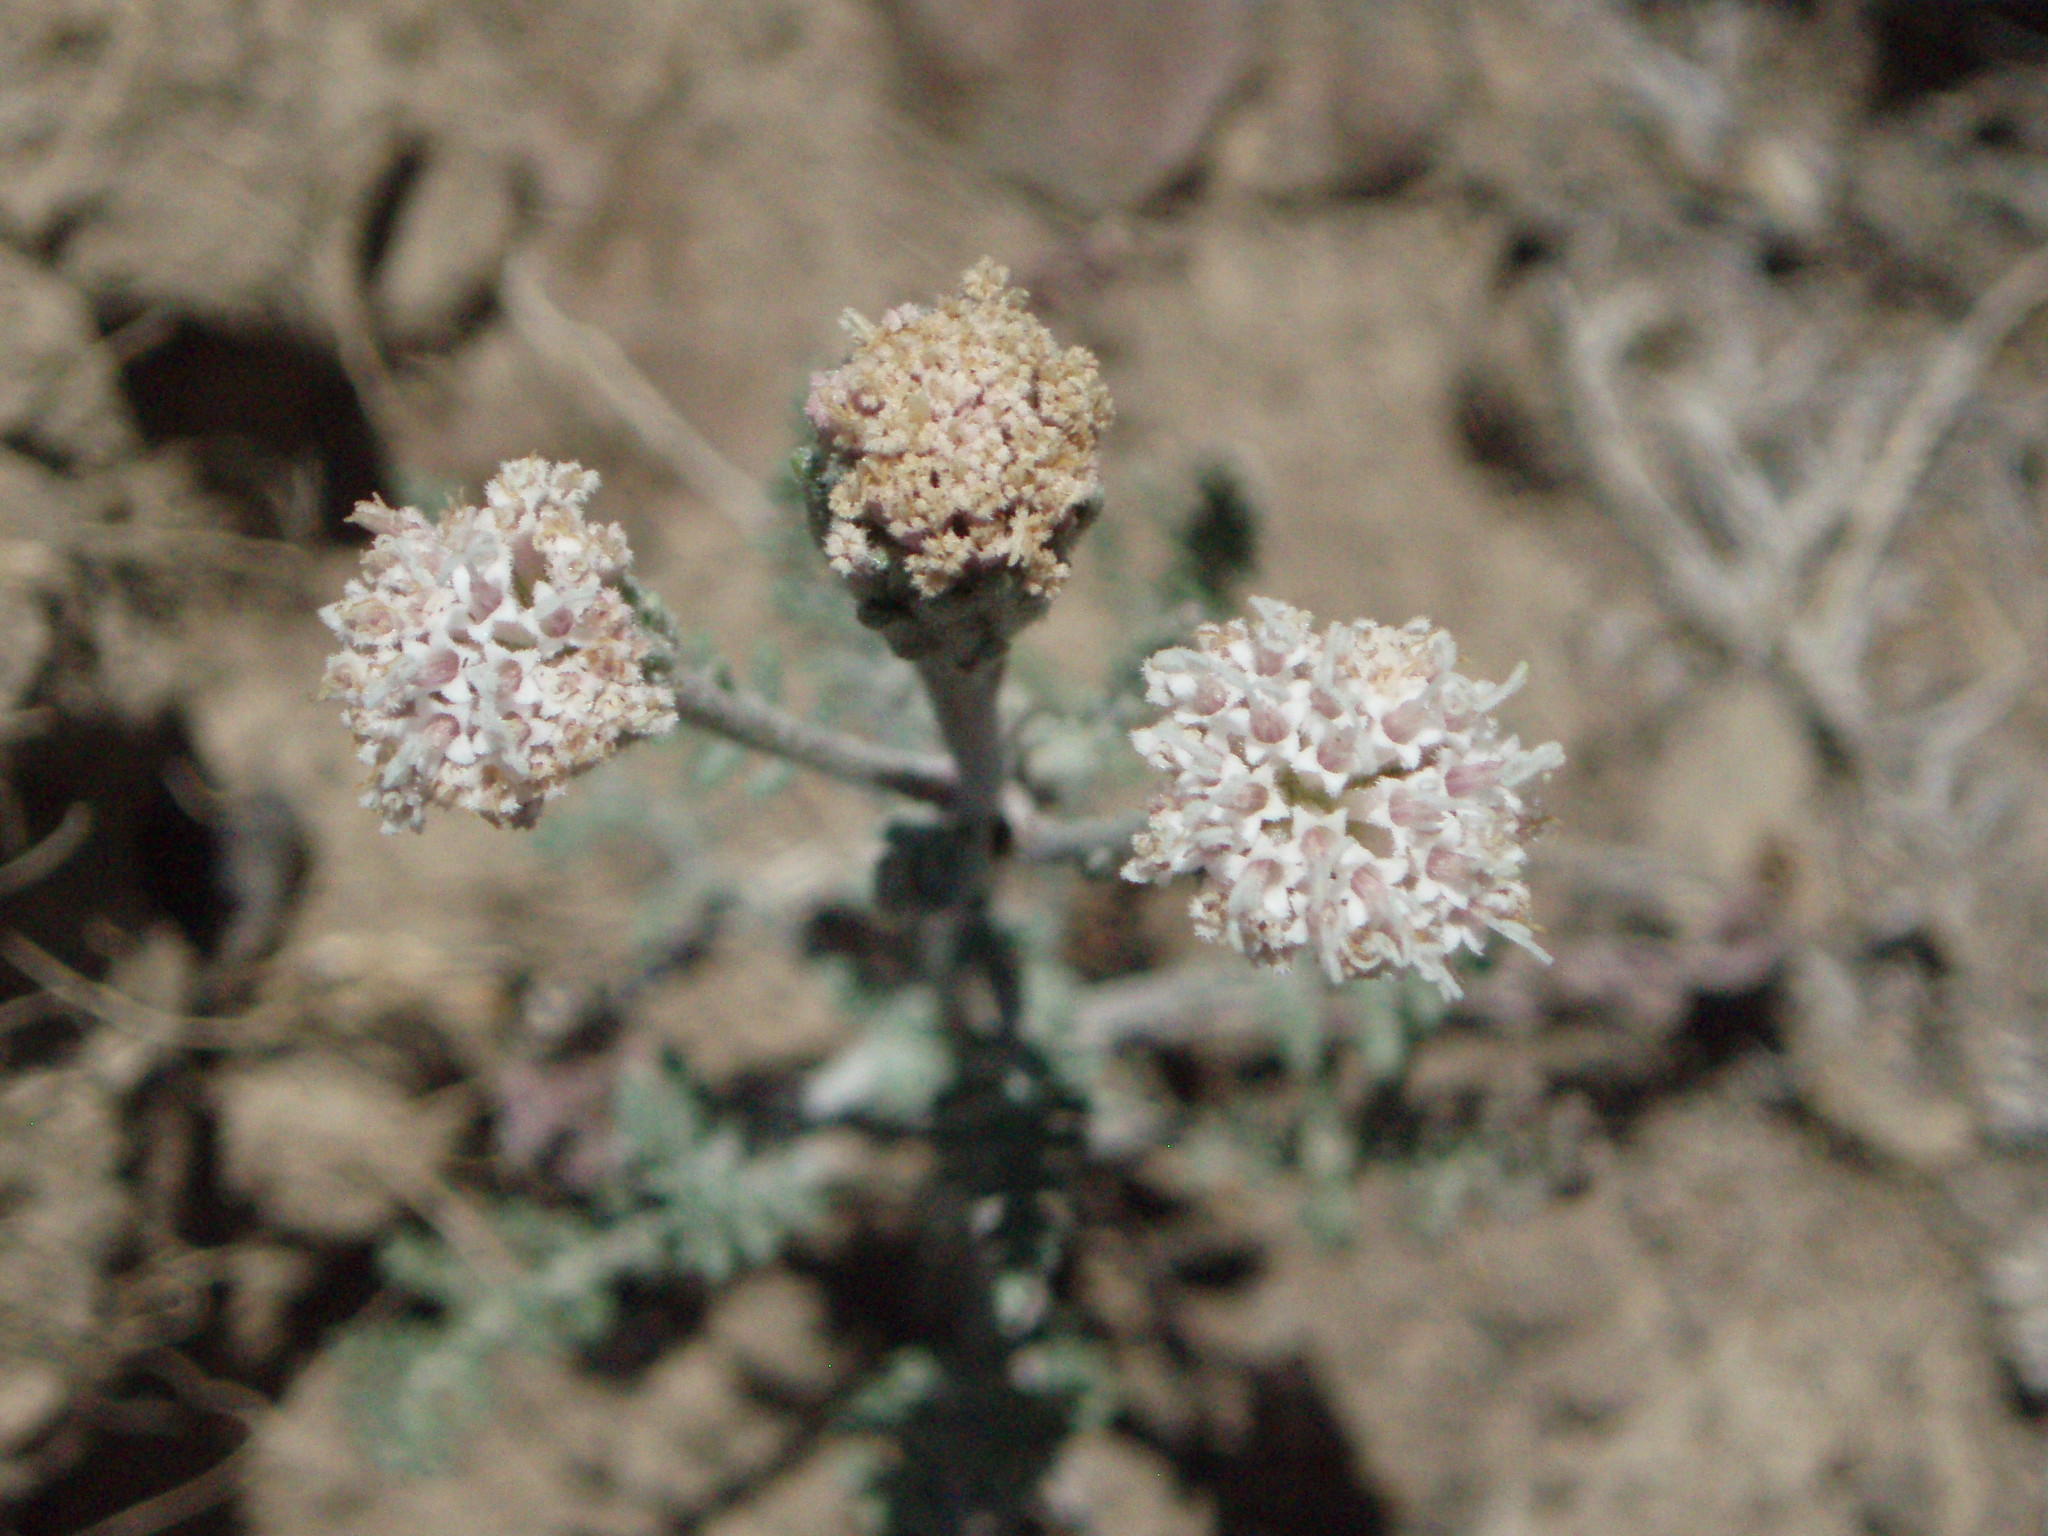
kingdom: Plantae
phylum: Tracheophyta
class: Magnoliopsida
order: Asterales
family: Asteraceae
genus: Chaenactis
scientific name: Chaenactis douglasii
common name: Hoary pincushion
